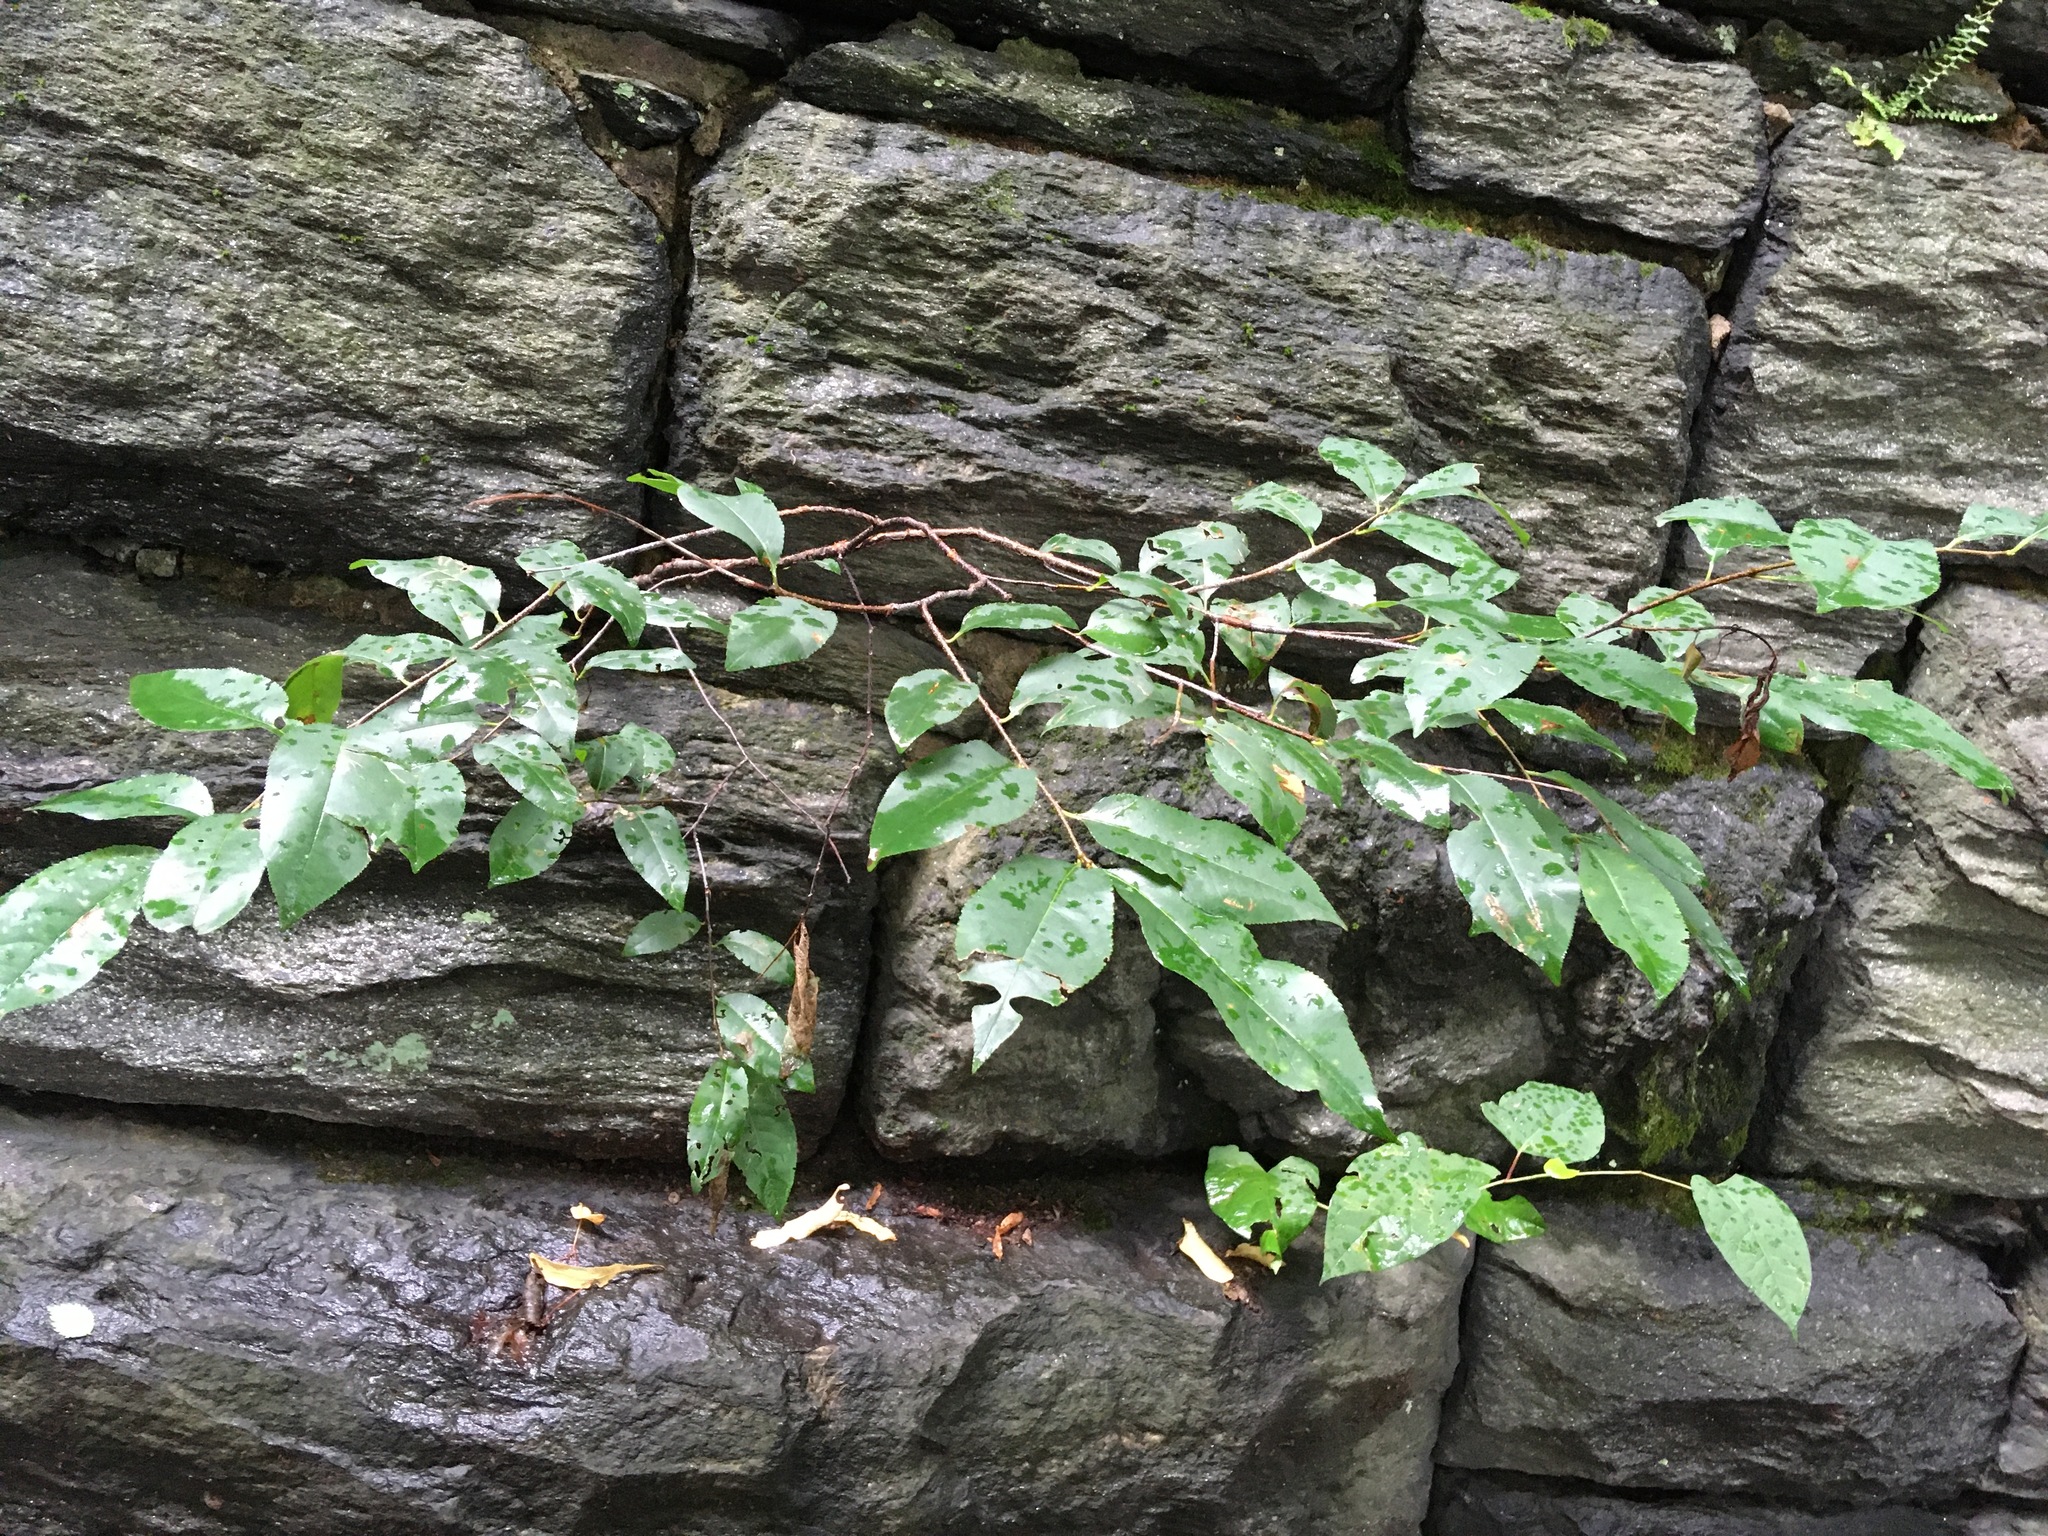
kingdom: Plantae
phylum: Tracheophyta
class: Magnoliopsida
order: Rosales
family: Rosaceae
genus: Prunus
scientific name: Prunus serotina
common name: Black cherry
